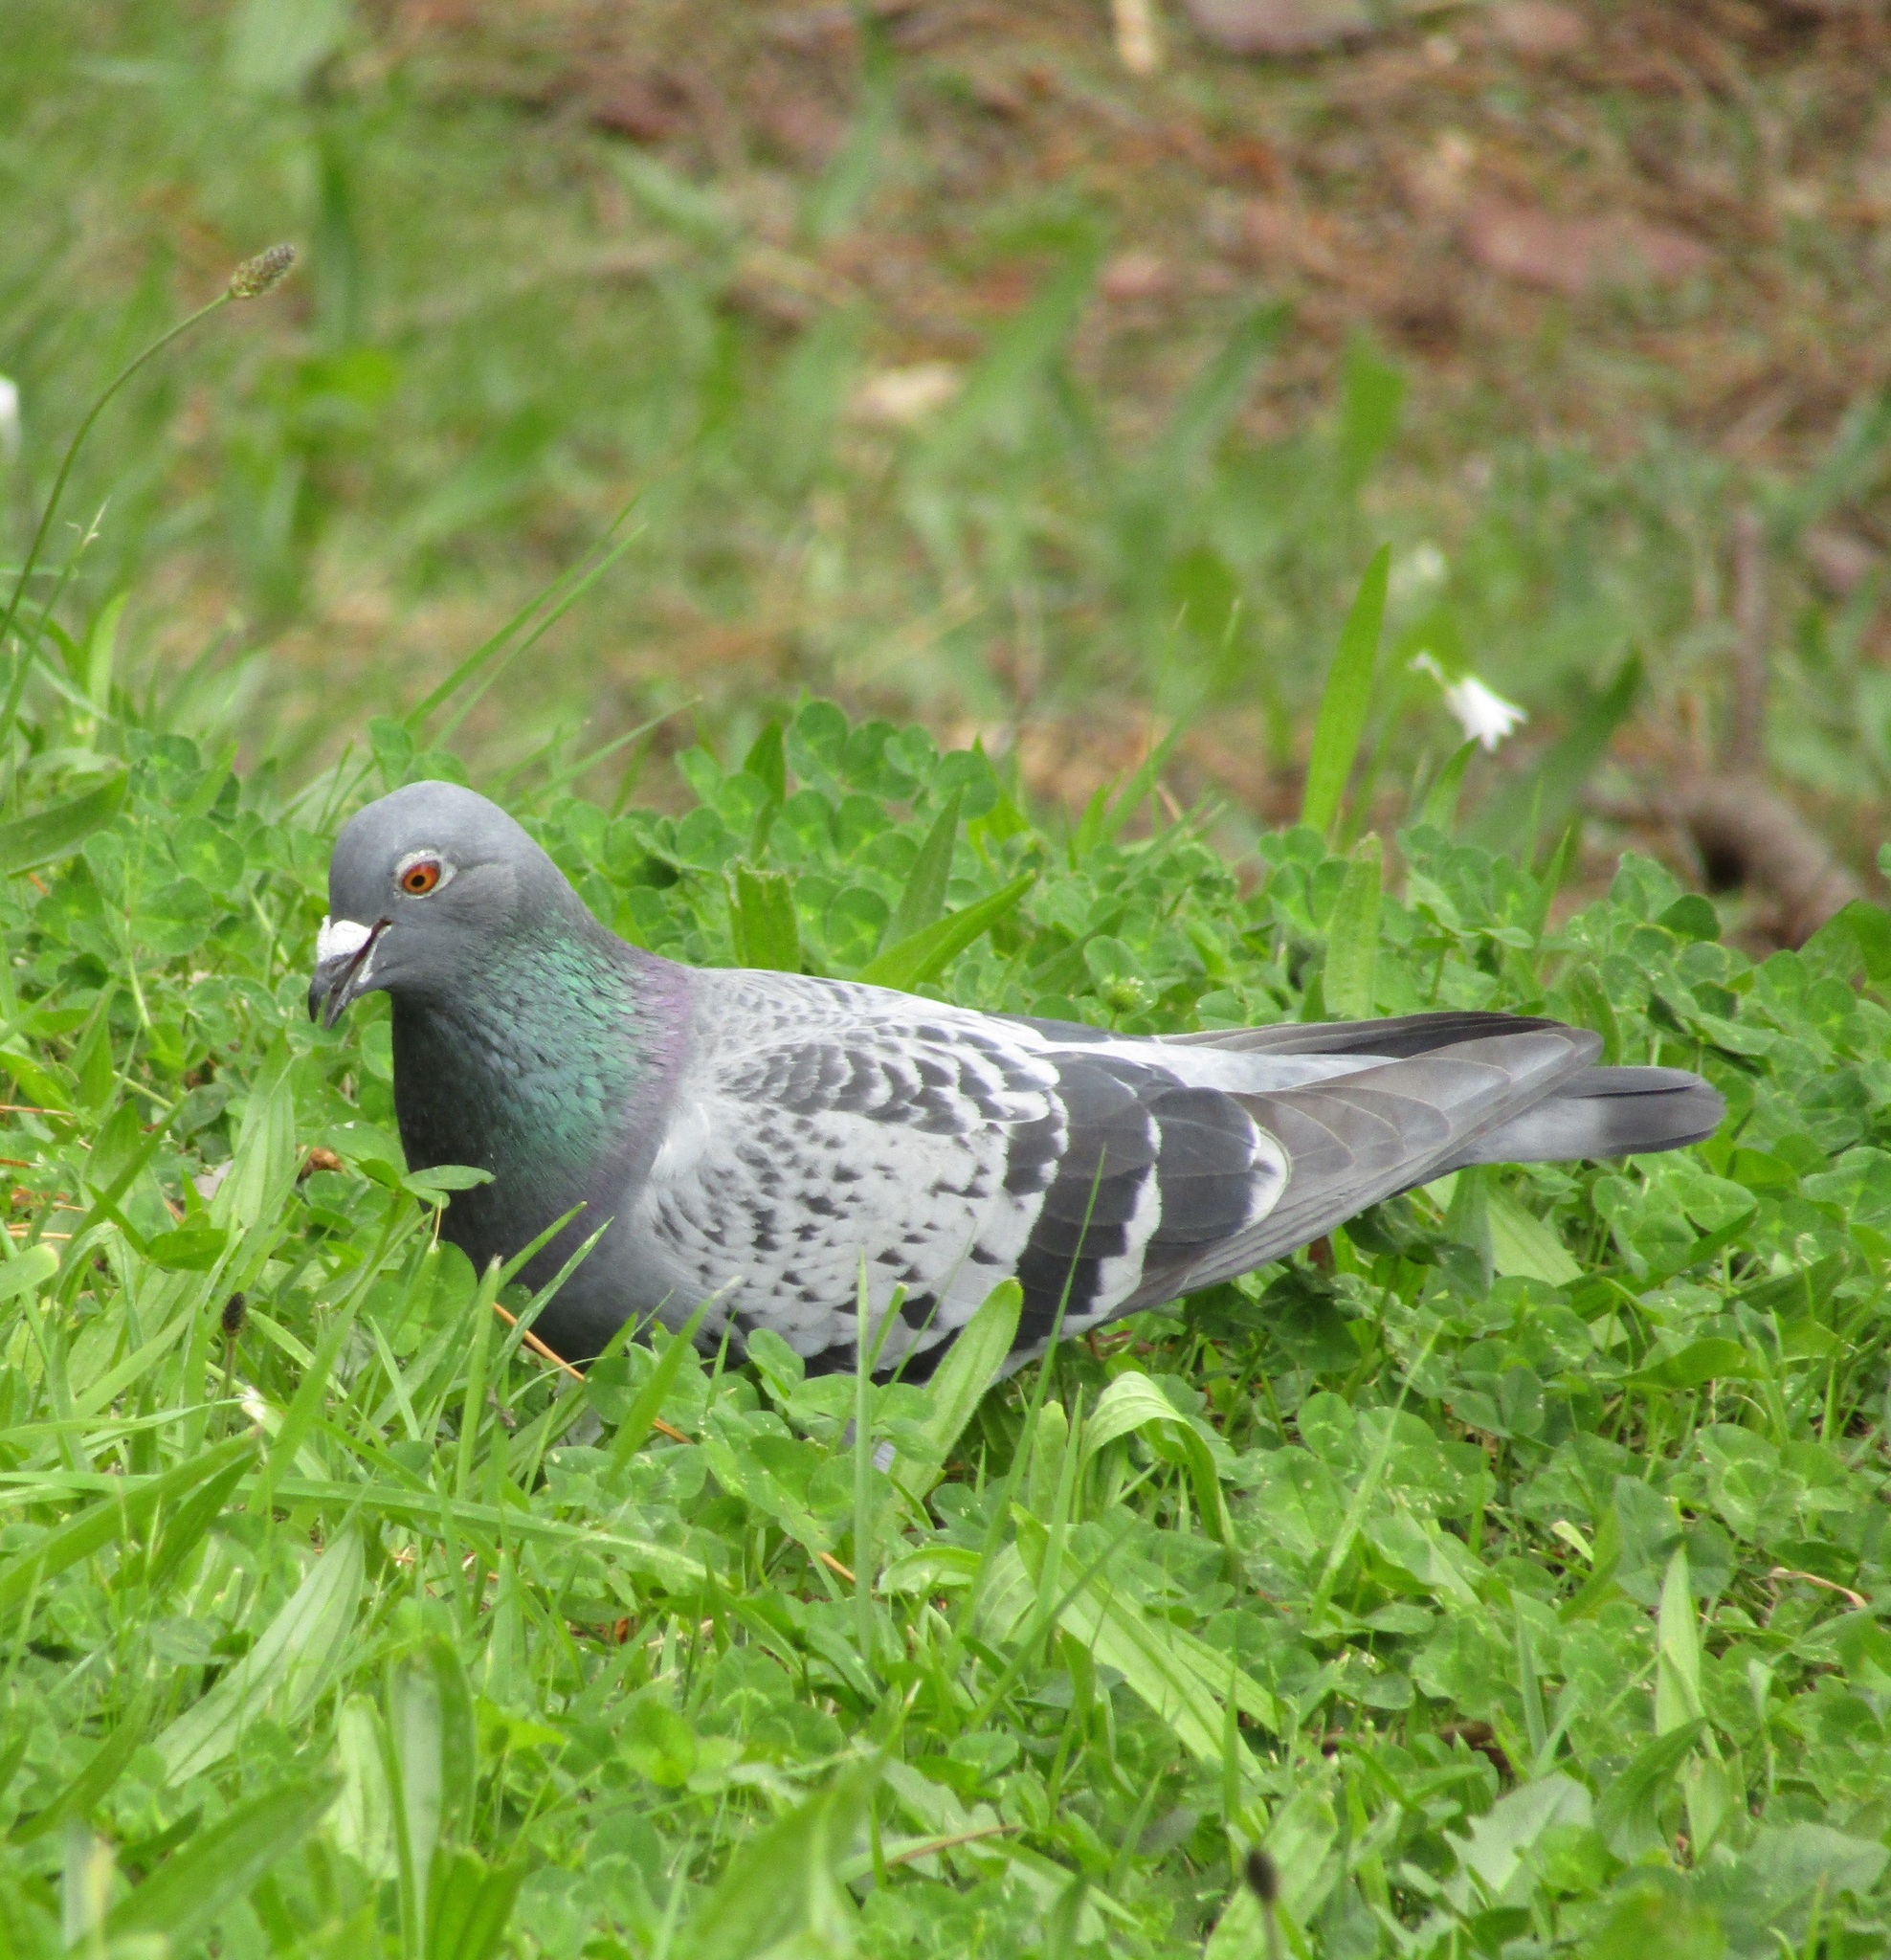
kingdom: Animalia
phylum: Chordata
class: Aves
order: Columbiformes
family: Columbidae
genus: Columba
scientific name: Columba livia
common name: Rock pigeon
